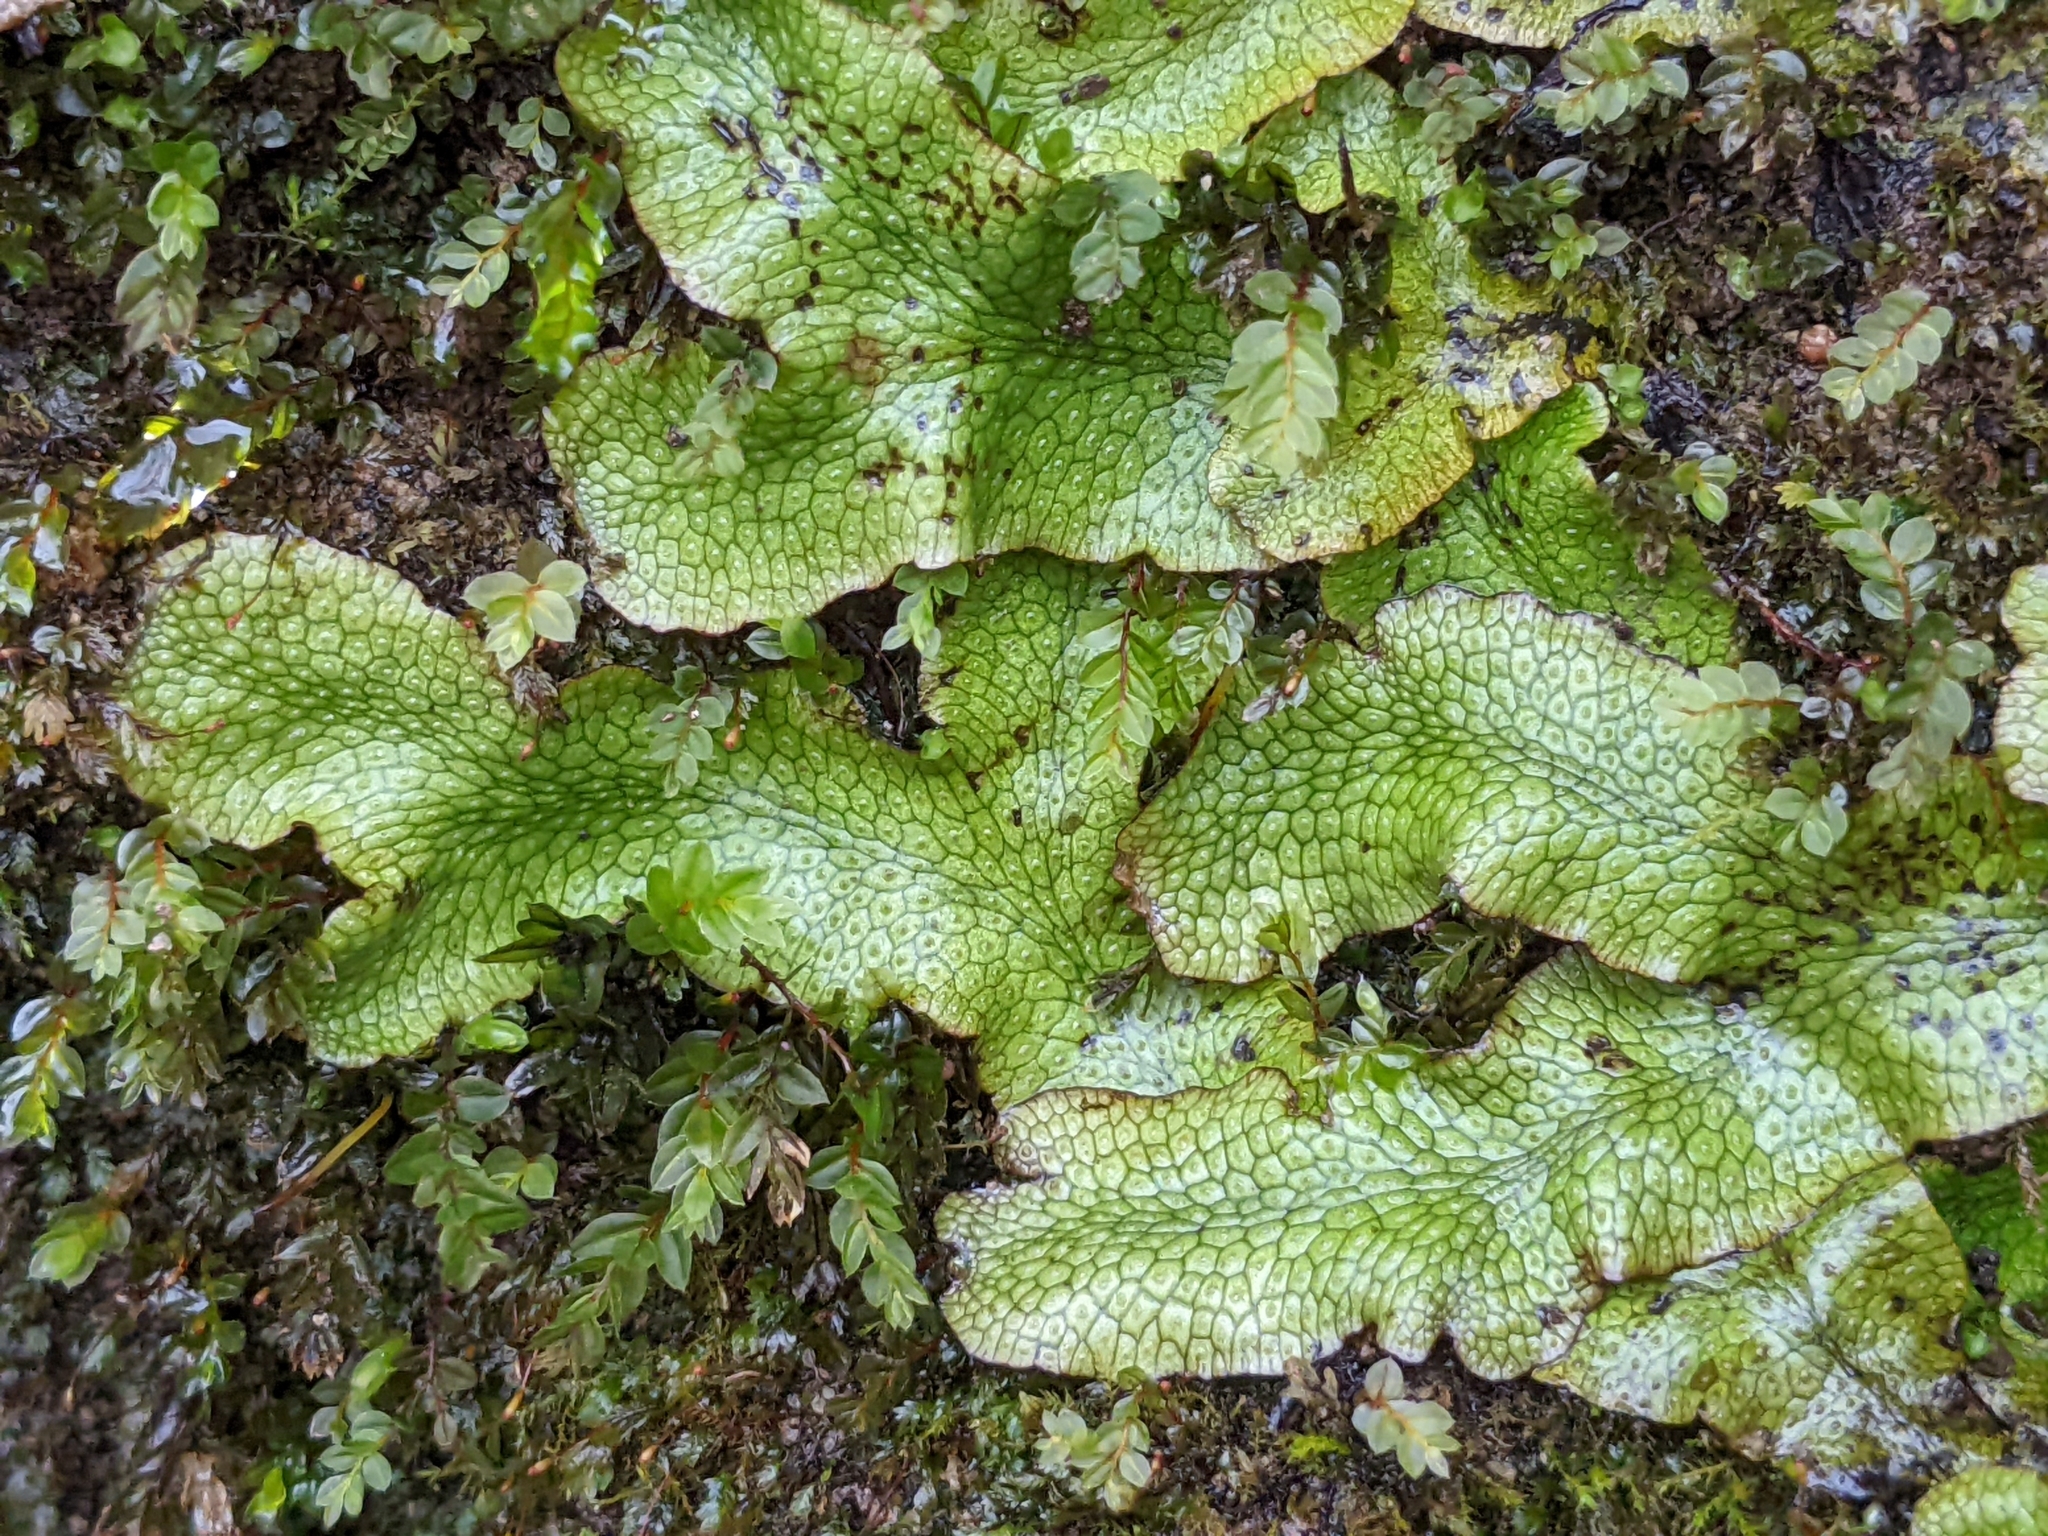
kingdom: Plantae
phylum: Marchantiophyta
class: Marchantiopsida
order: Marchantiales
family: Conocephalaceae
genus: Conocephalum
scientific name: Conocephalum salebrosum
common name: Cat-tongue liverwort
